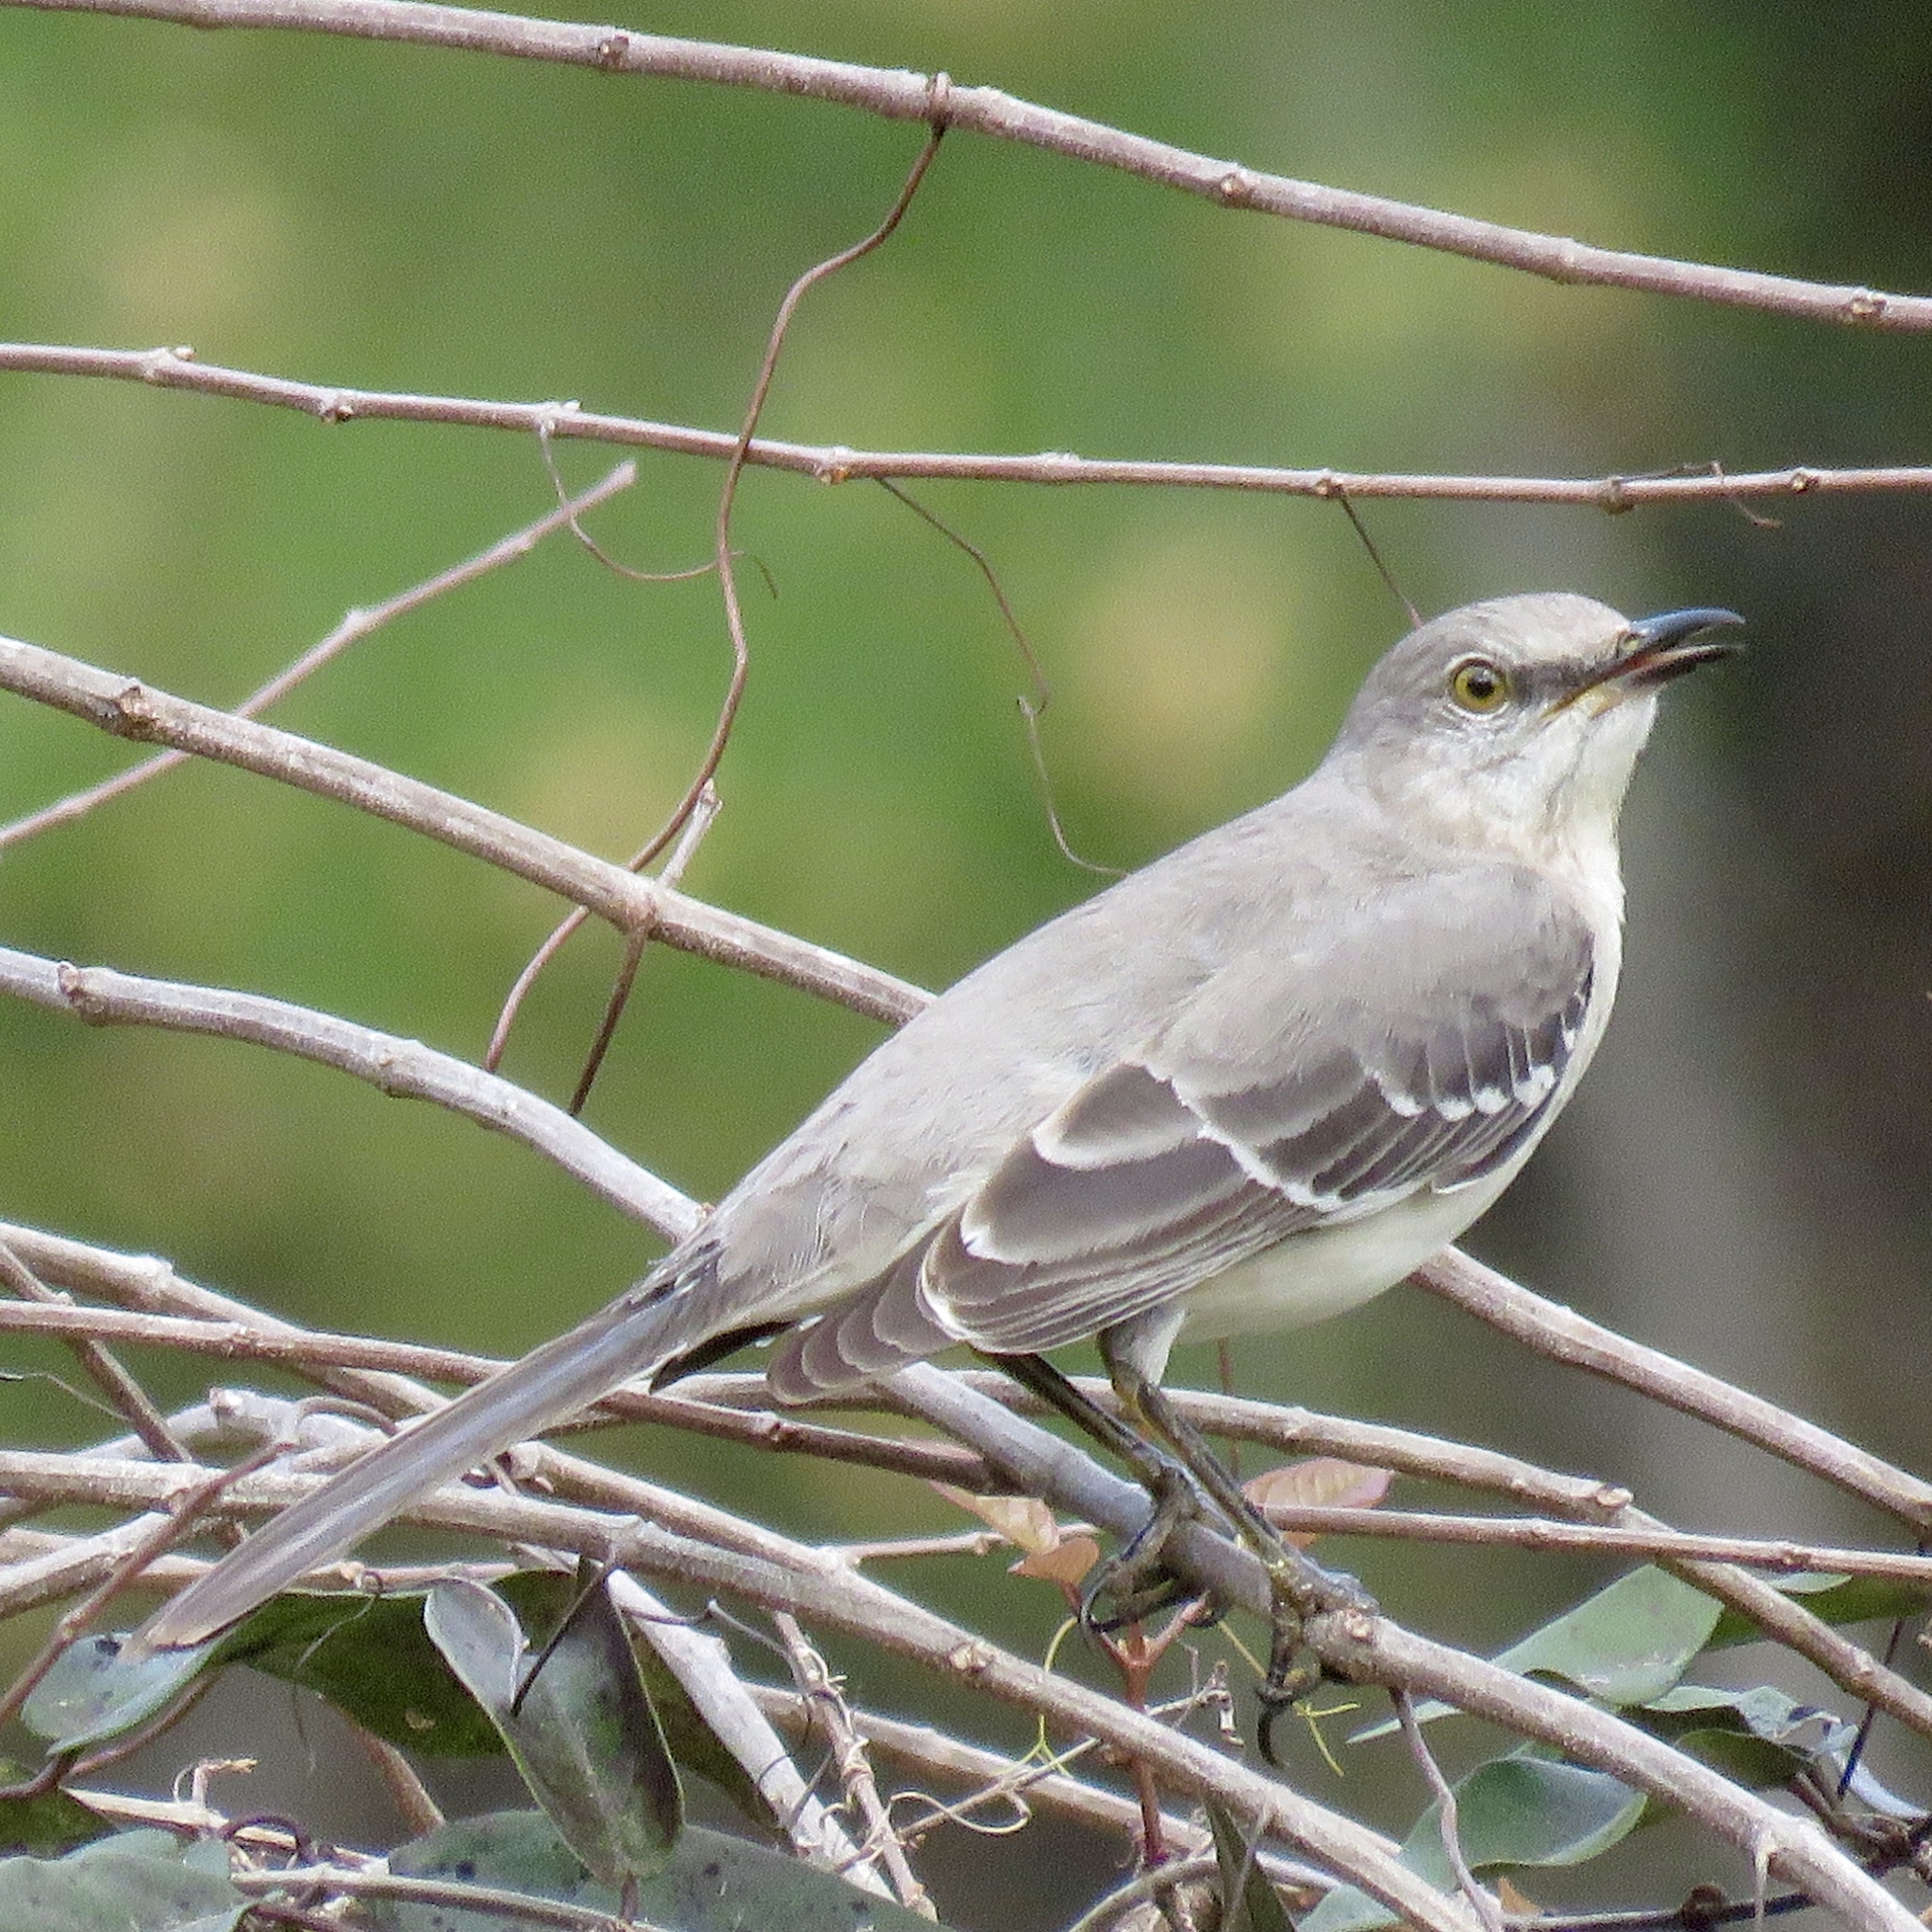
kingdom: Animalia
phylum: Chordata
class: Aves
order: Passeriformes
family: Mimidae
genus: Mimus
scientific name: Mimus polyglottos
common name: Northern mockingbird
